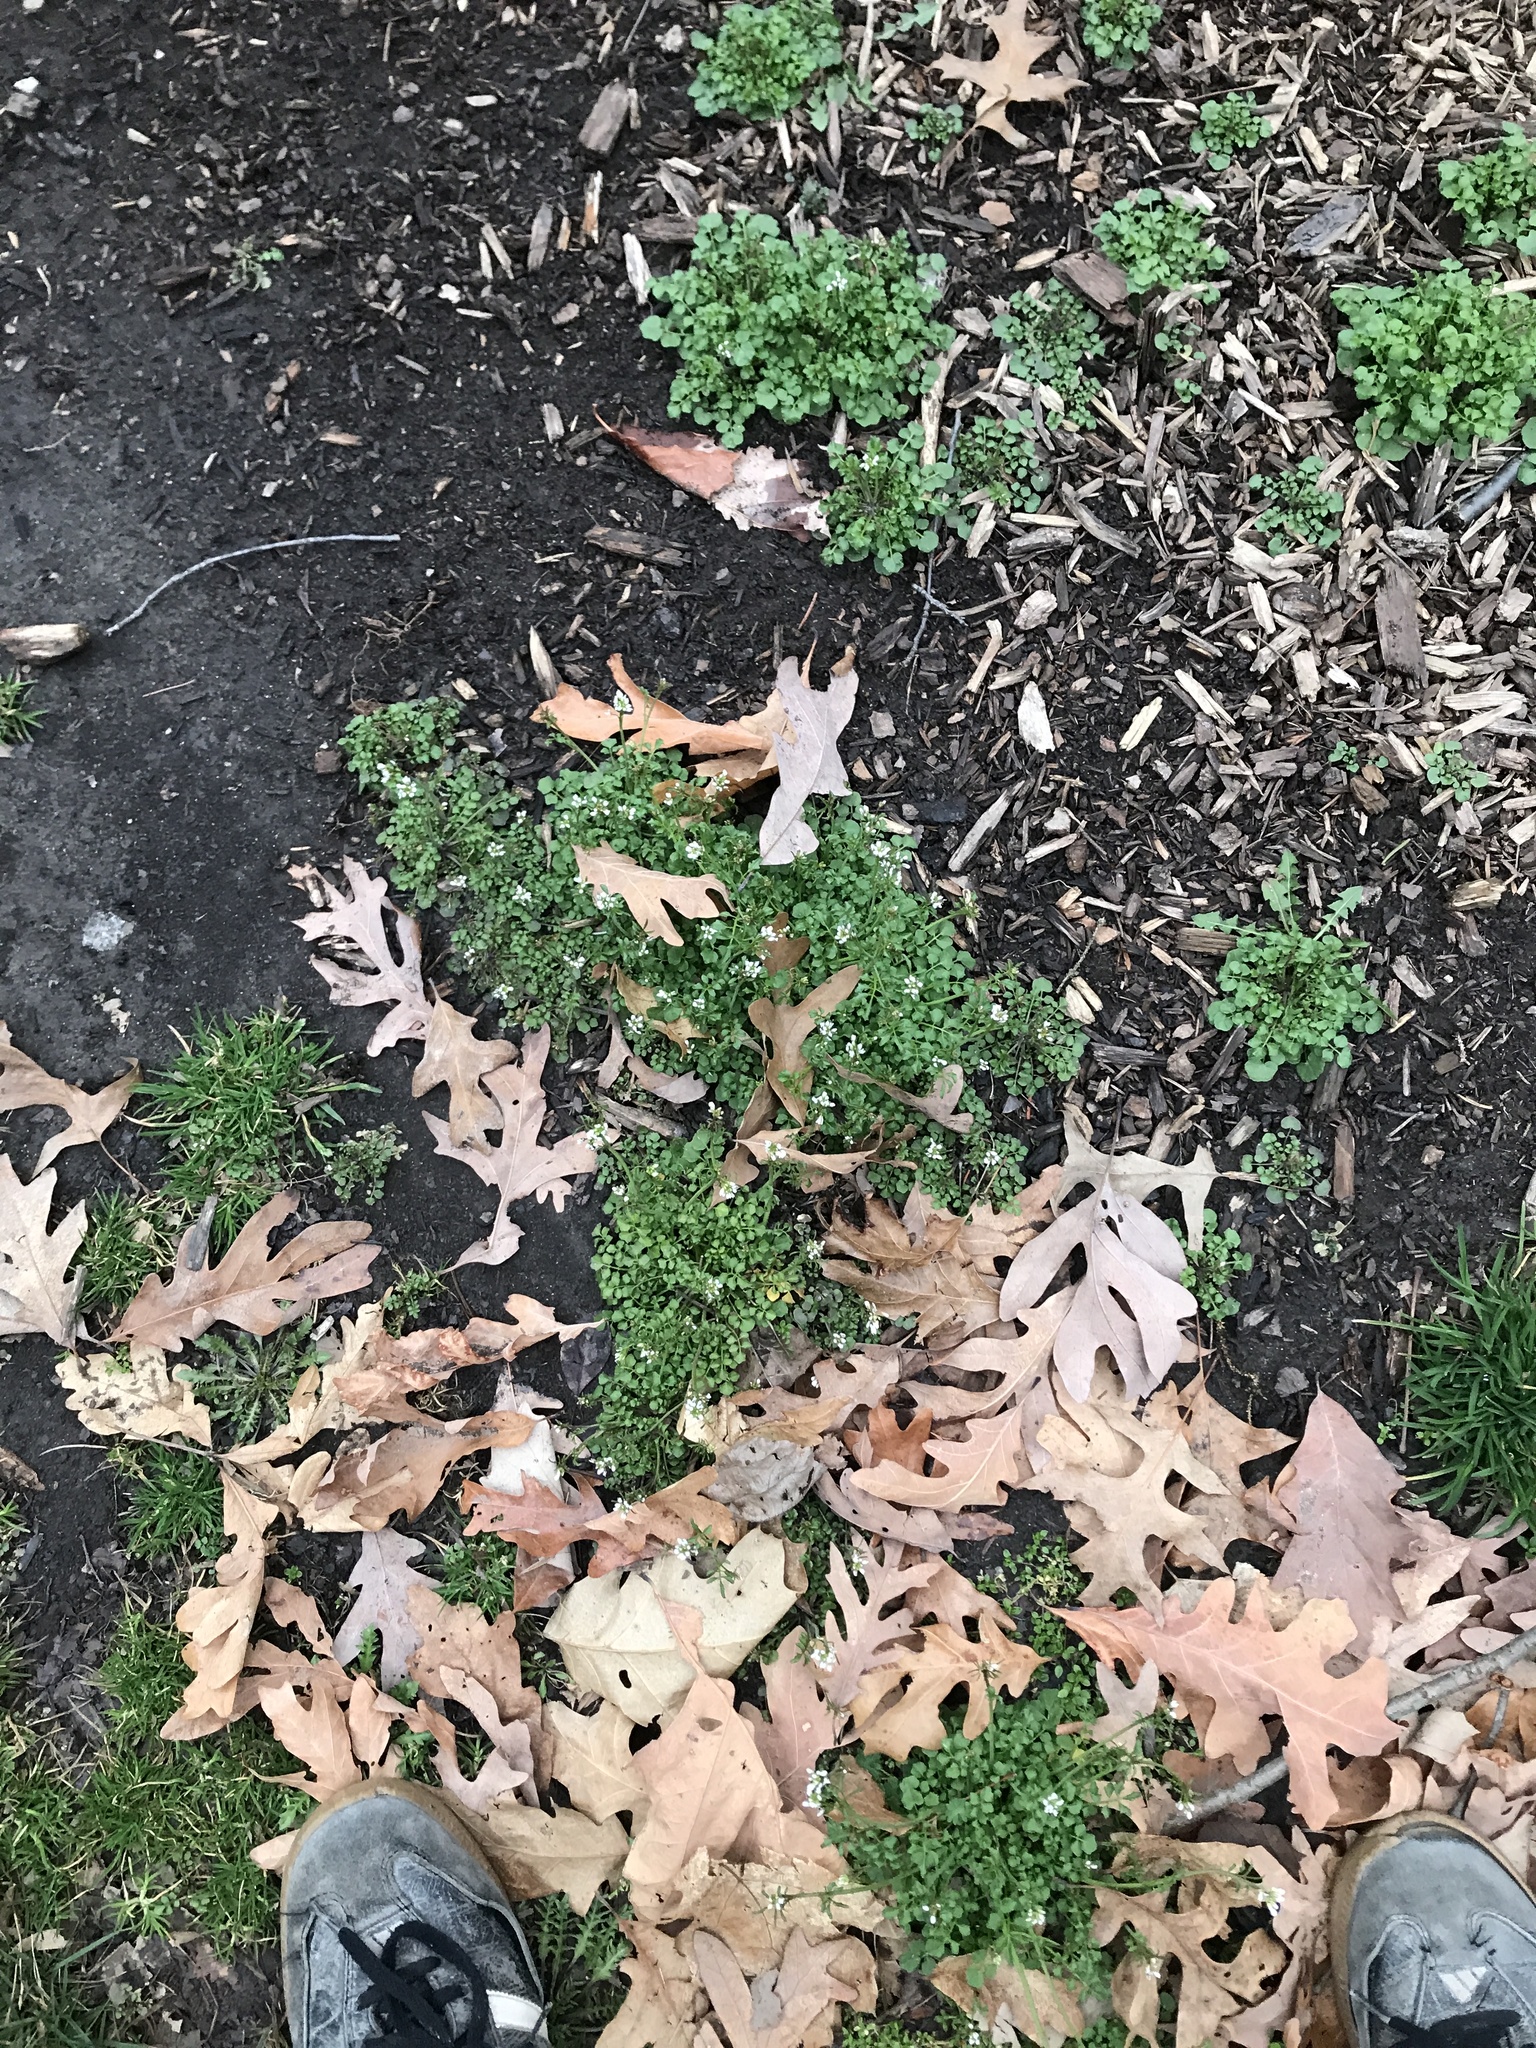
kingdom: Plantae
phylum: Tracheophyta
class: Magnoliopsida
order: Brassicales
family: Brassicaceae
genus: Cardamine
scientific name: Cardamine hirsuta
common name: Hairy bittercress
